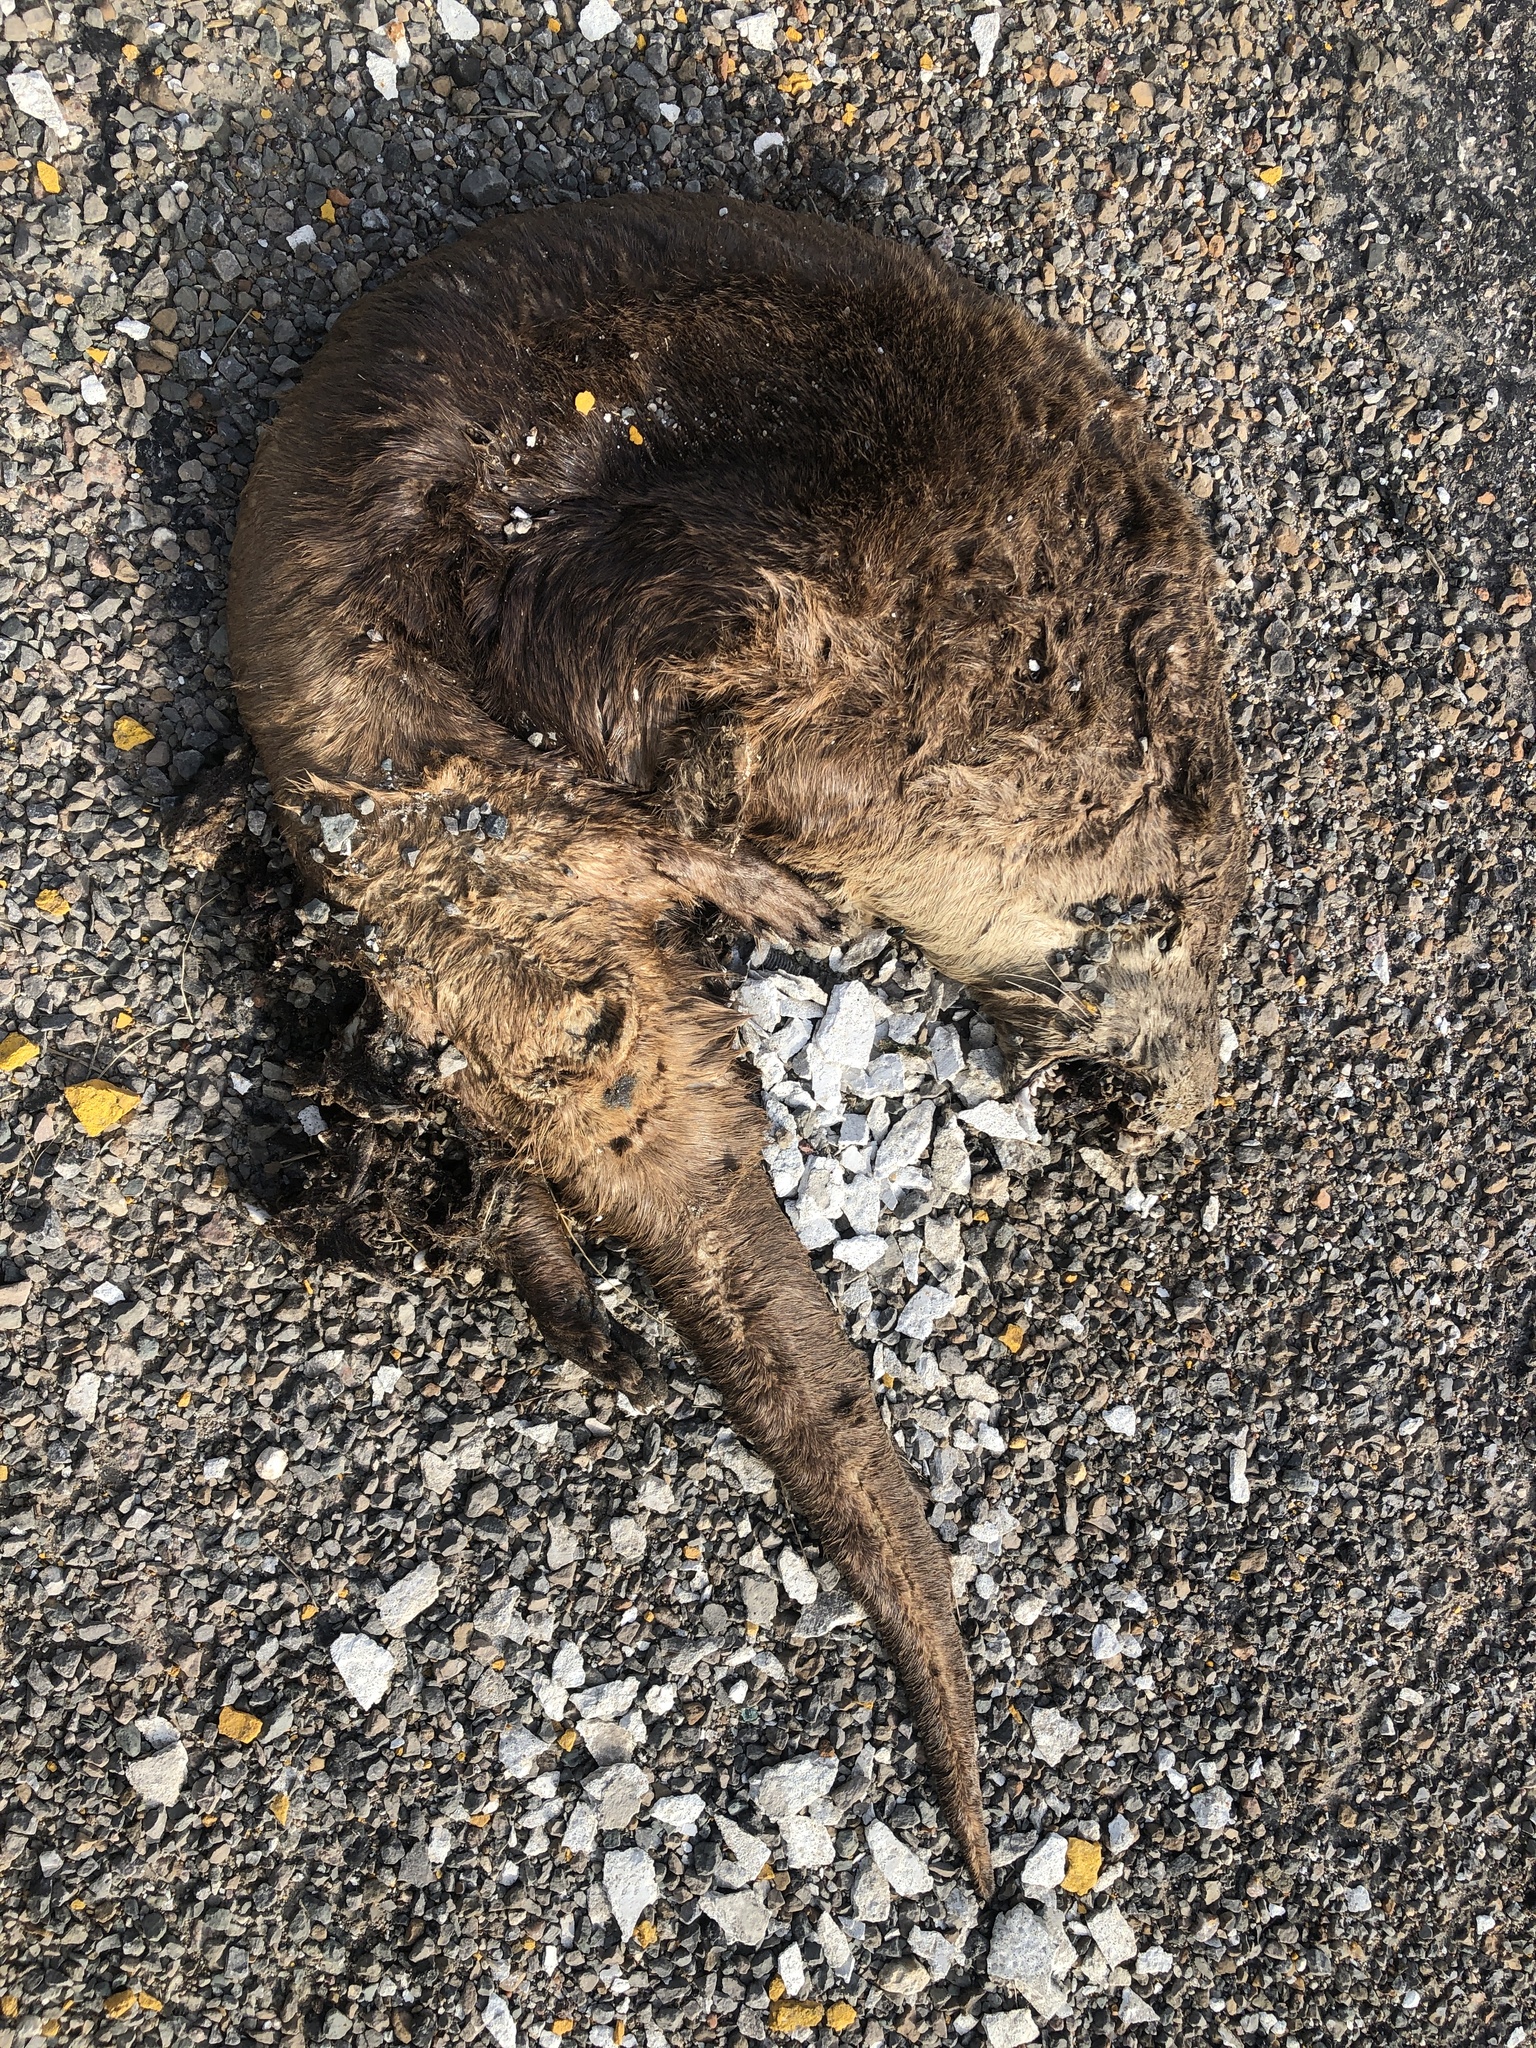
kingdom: Animalia
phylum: Chordata
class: Mammalia
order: Carnivora
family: Mustelidae
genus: Lontra
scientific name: Lontra canadensis
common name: North american river otter
